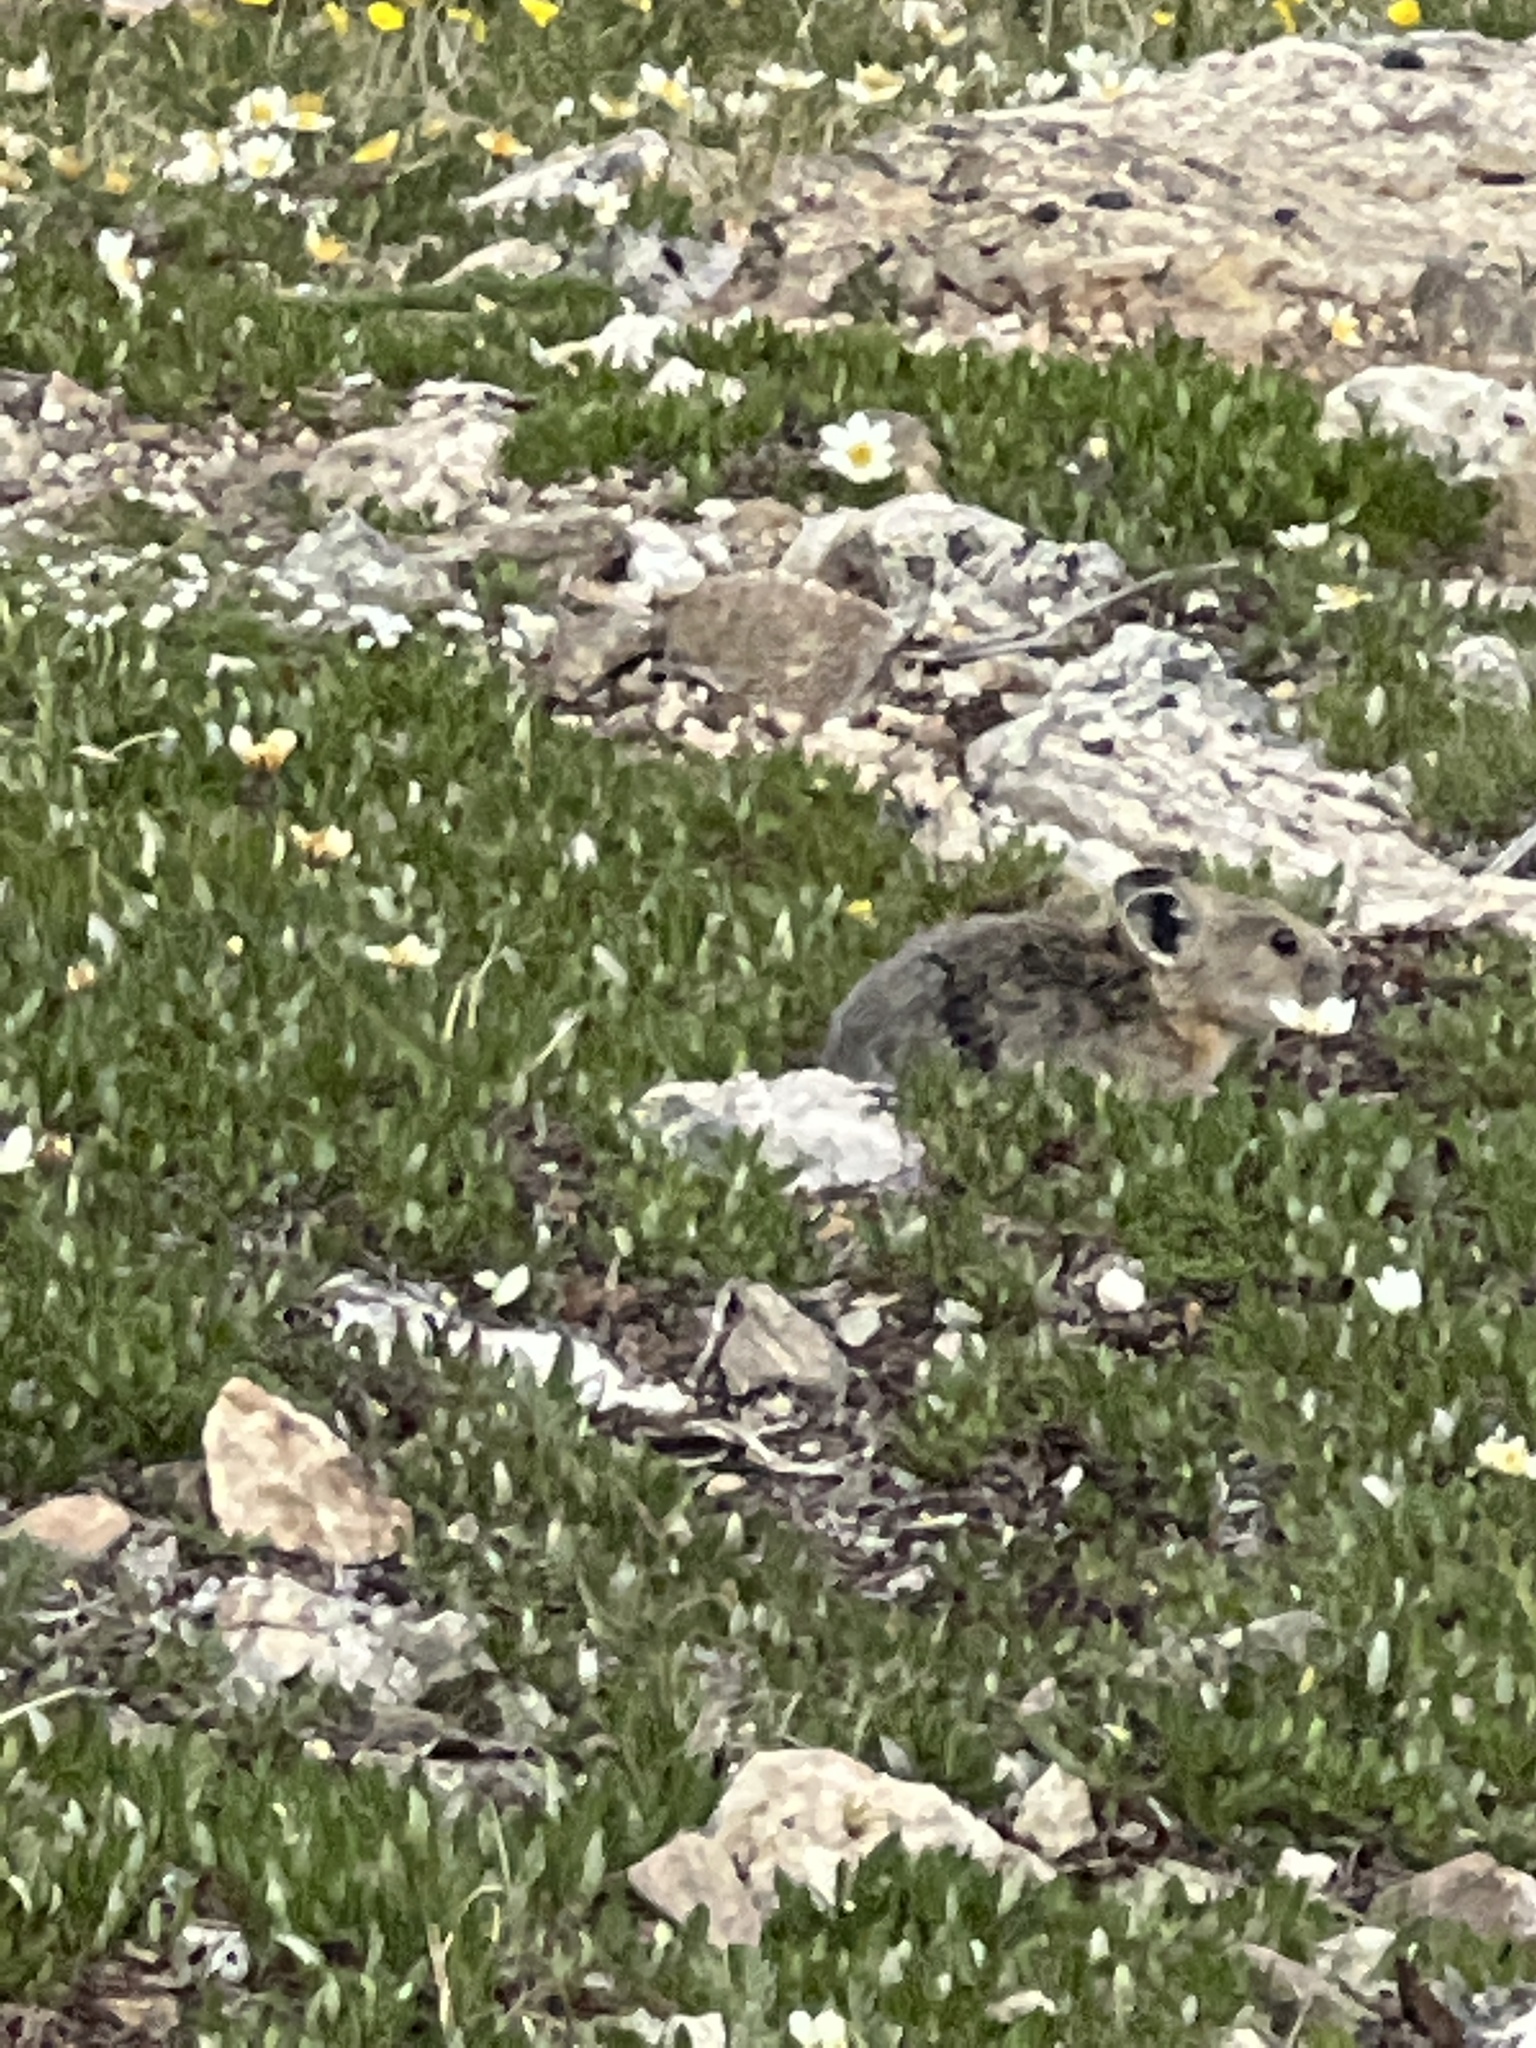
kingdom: Animalia
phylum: Chordata
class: Mammalia
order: Lagomorpha
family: Ochotonidae
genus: Ochotona
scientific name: Ochotona princeps
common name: American pika
